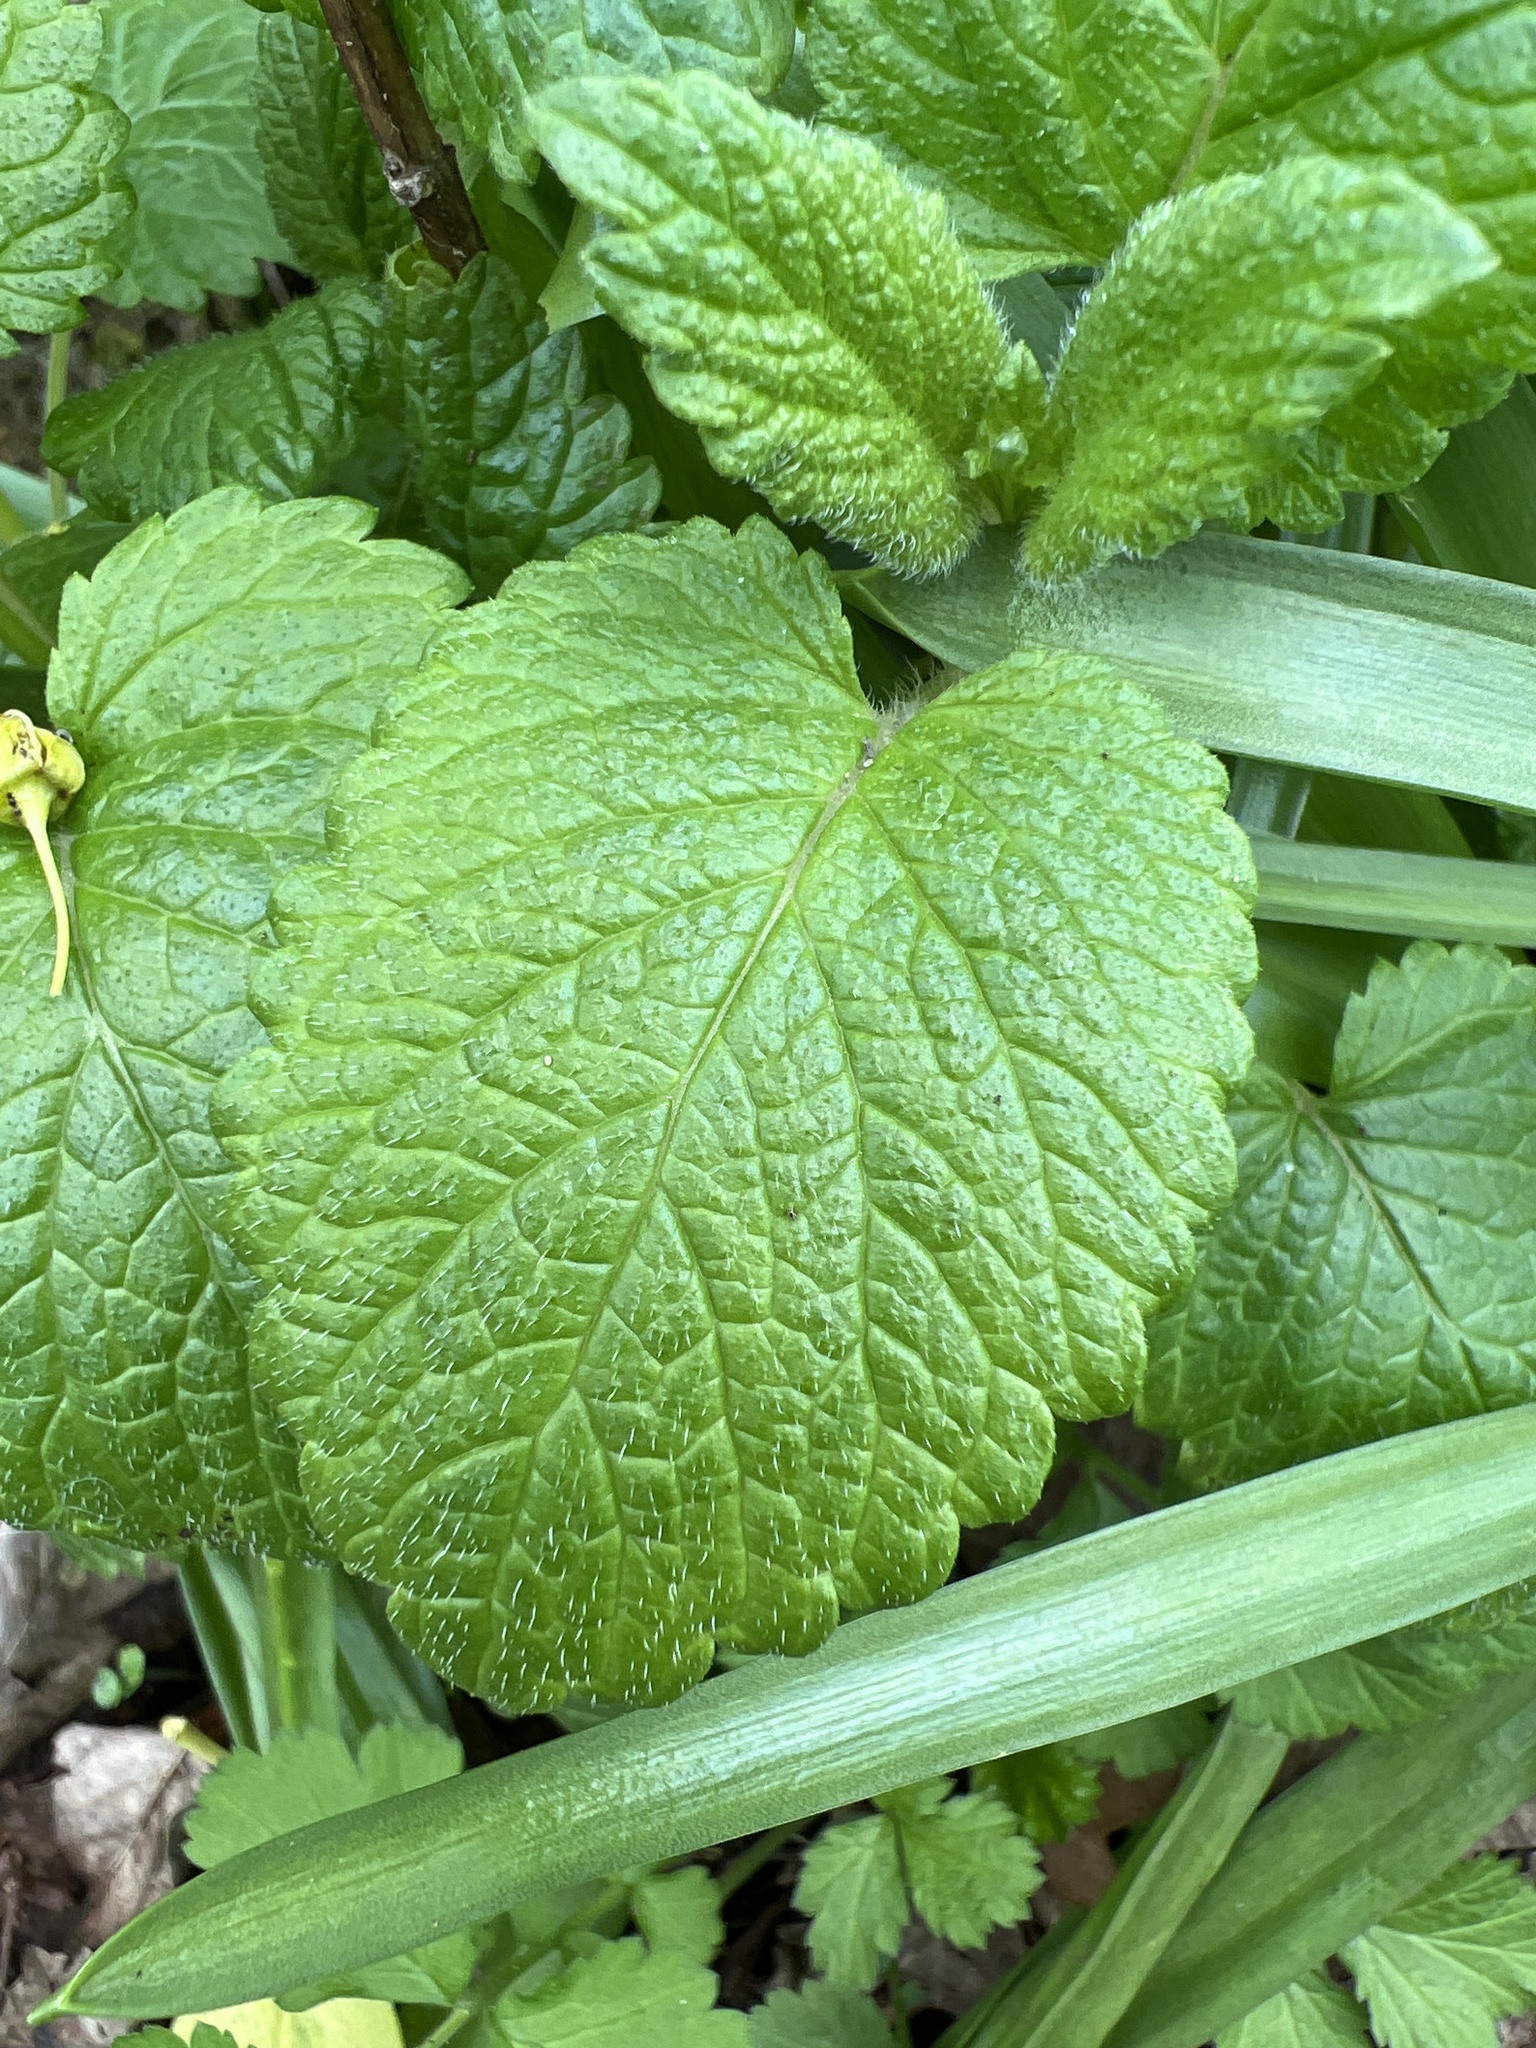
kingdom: Plantae
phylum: Tracheophyta
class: Magnoliopsida
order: Lamiales
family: Lamiaceae
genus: Melissa
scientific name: Melissa officinalis
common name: Balm
